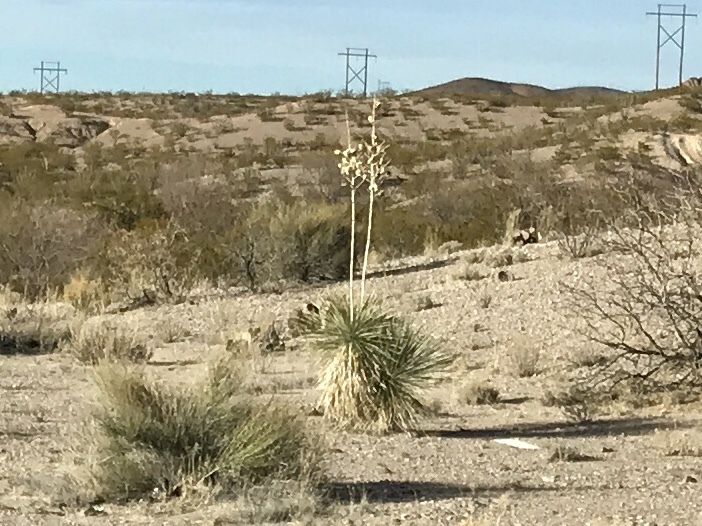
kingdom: Plantae
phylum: Tracheophyta
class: Liliopsida
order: Asparagales
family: Asparagaceae
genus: Yucca
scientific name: Yucca elata
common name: Palmella
